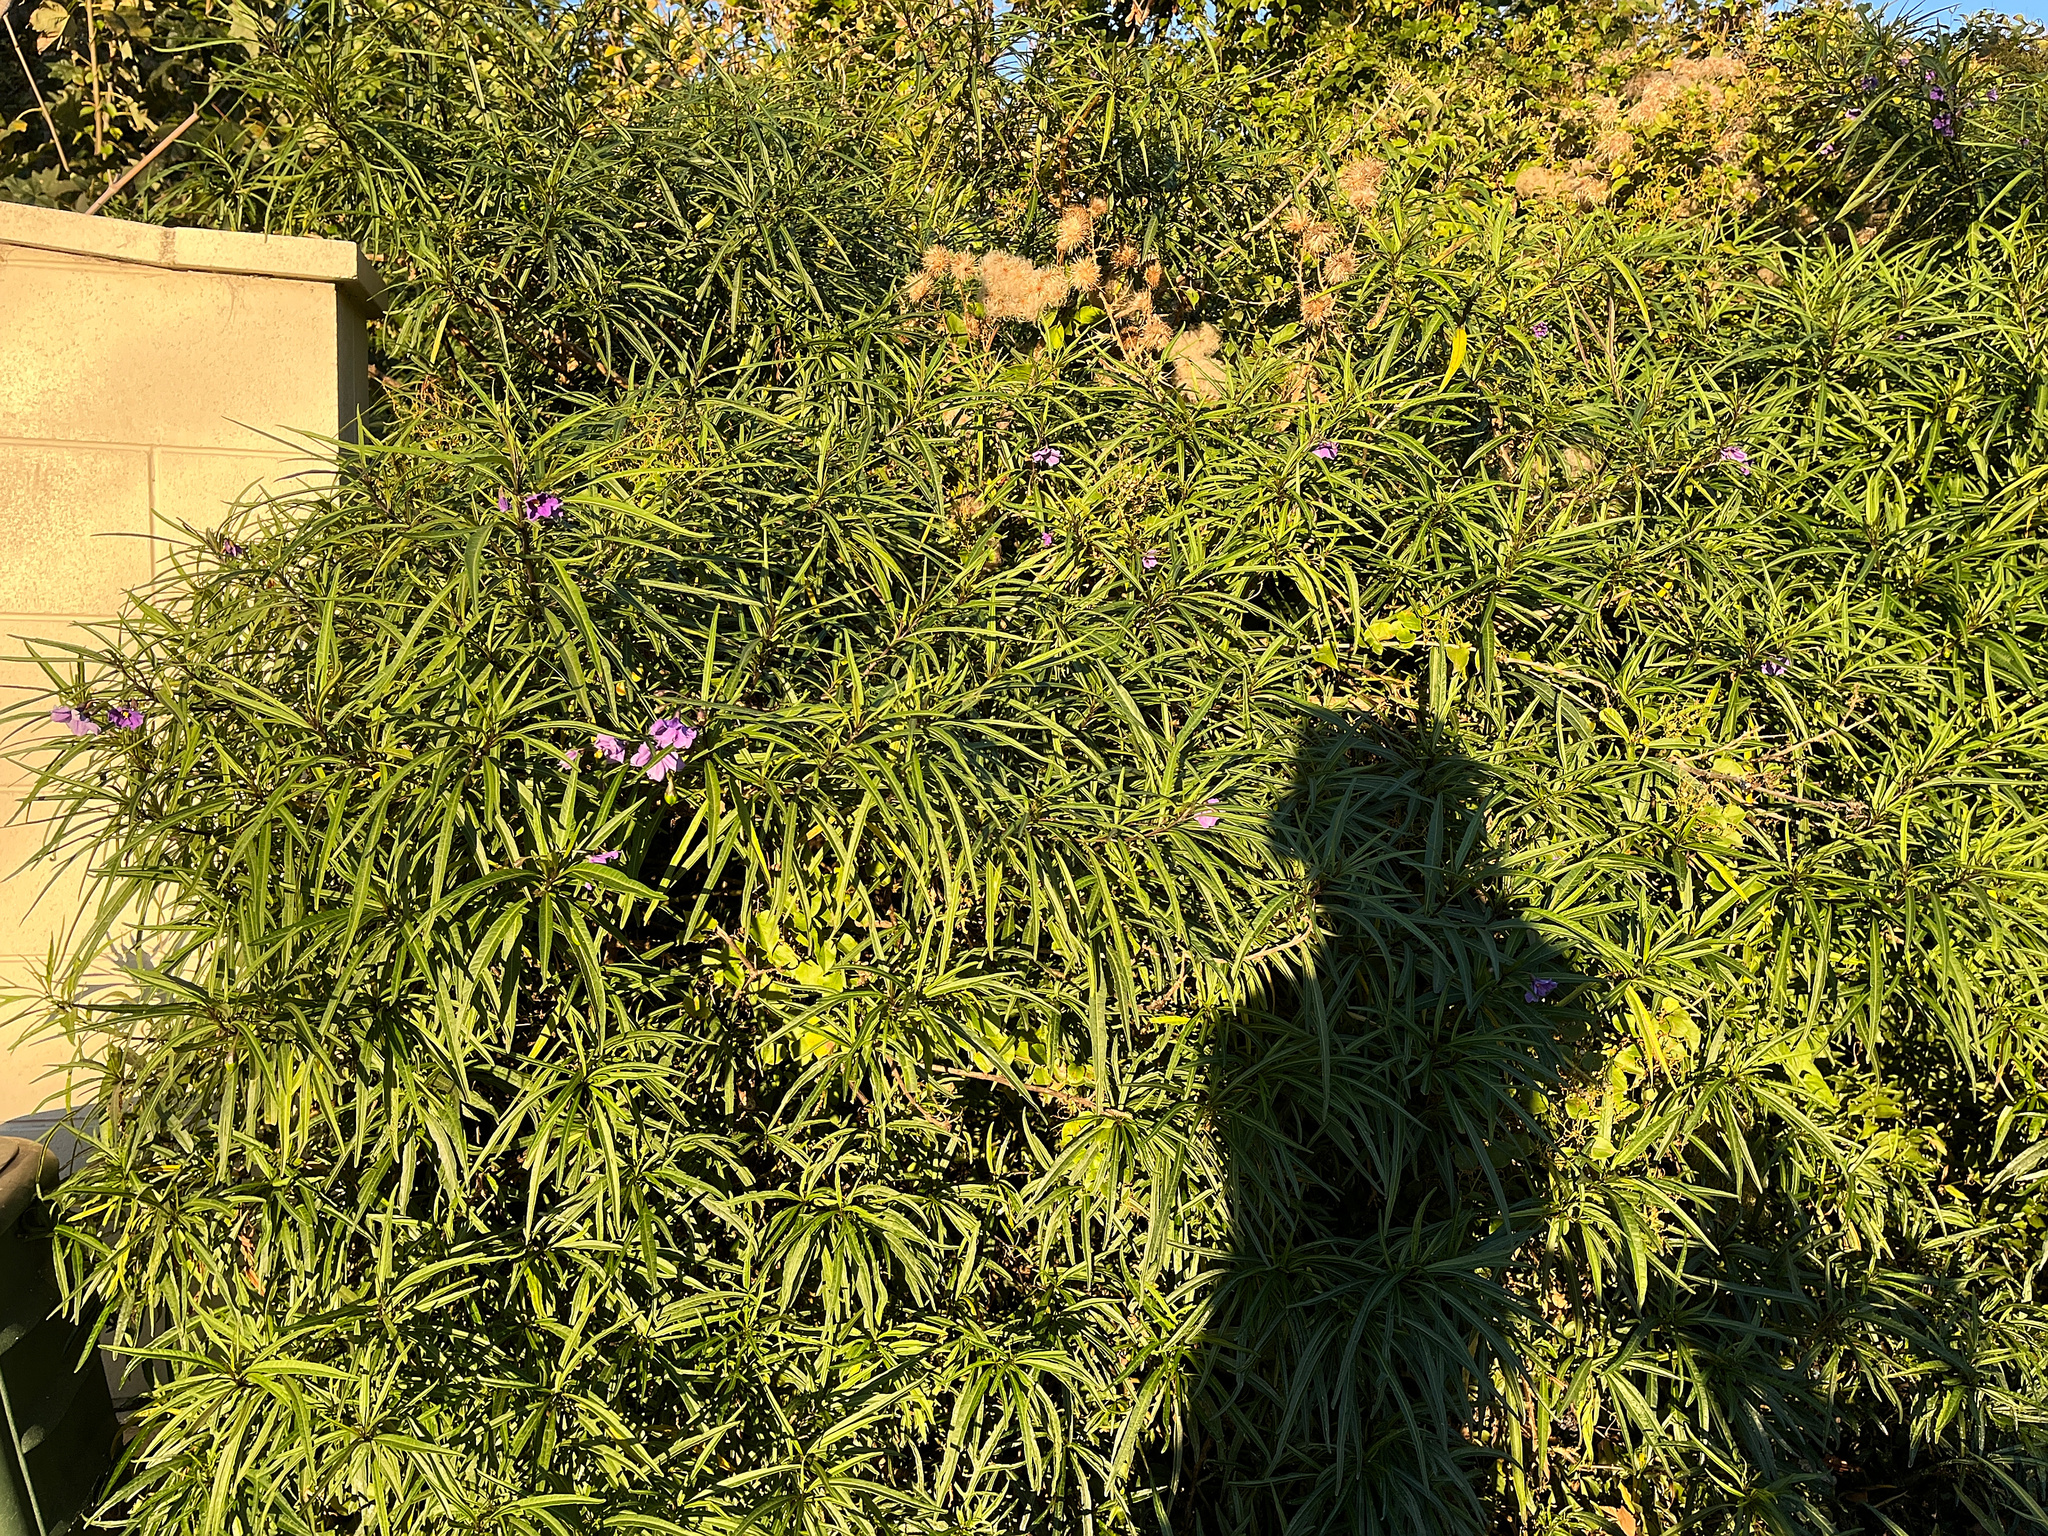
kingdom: Plantae
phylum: Tracheophyta
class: Magnoliopsida
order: Solanales
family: Solanaceae
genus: Solanum
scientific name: Solanum laciniatum
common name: Kangaroo-apple
